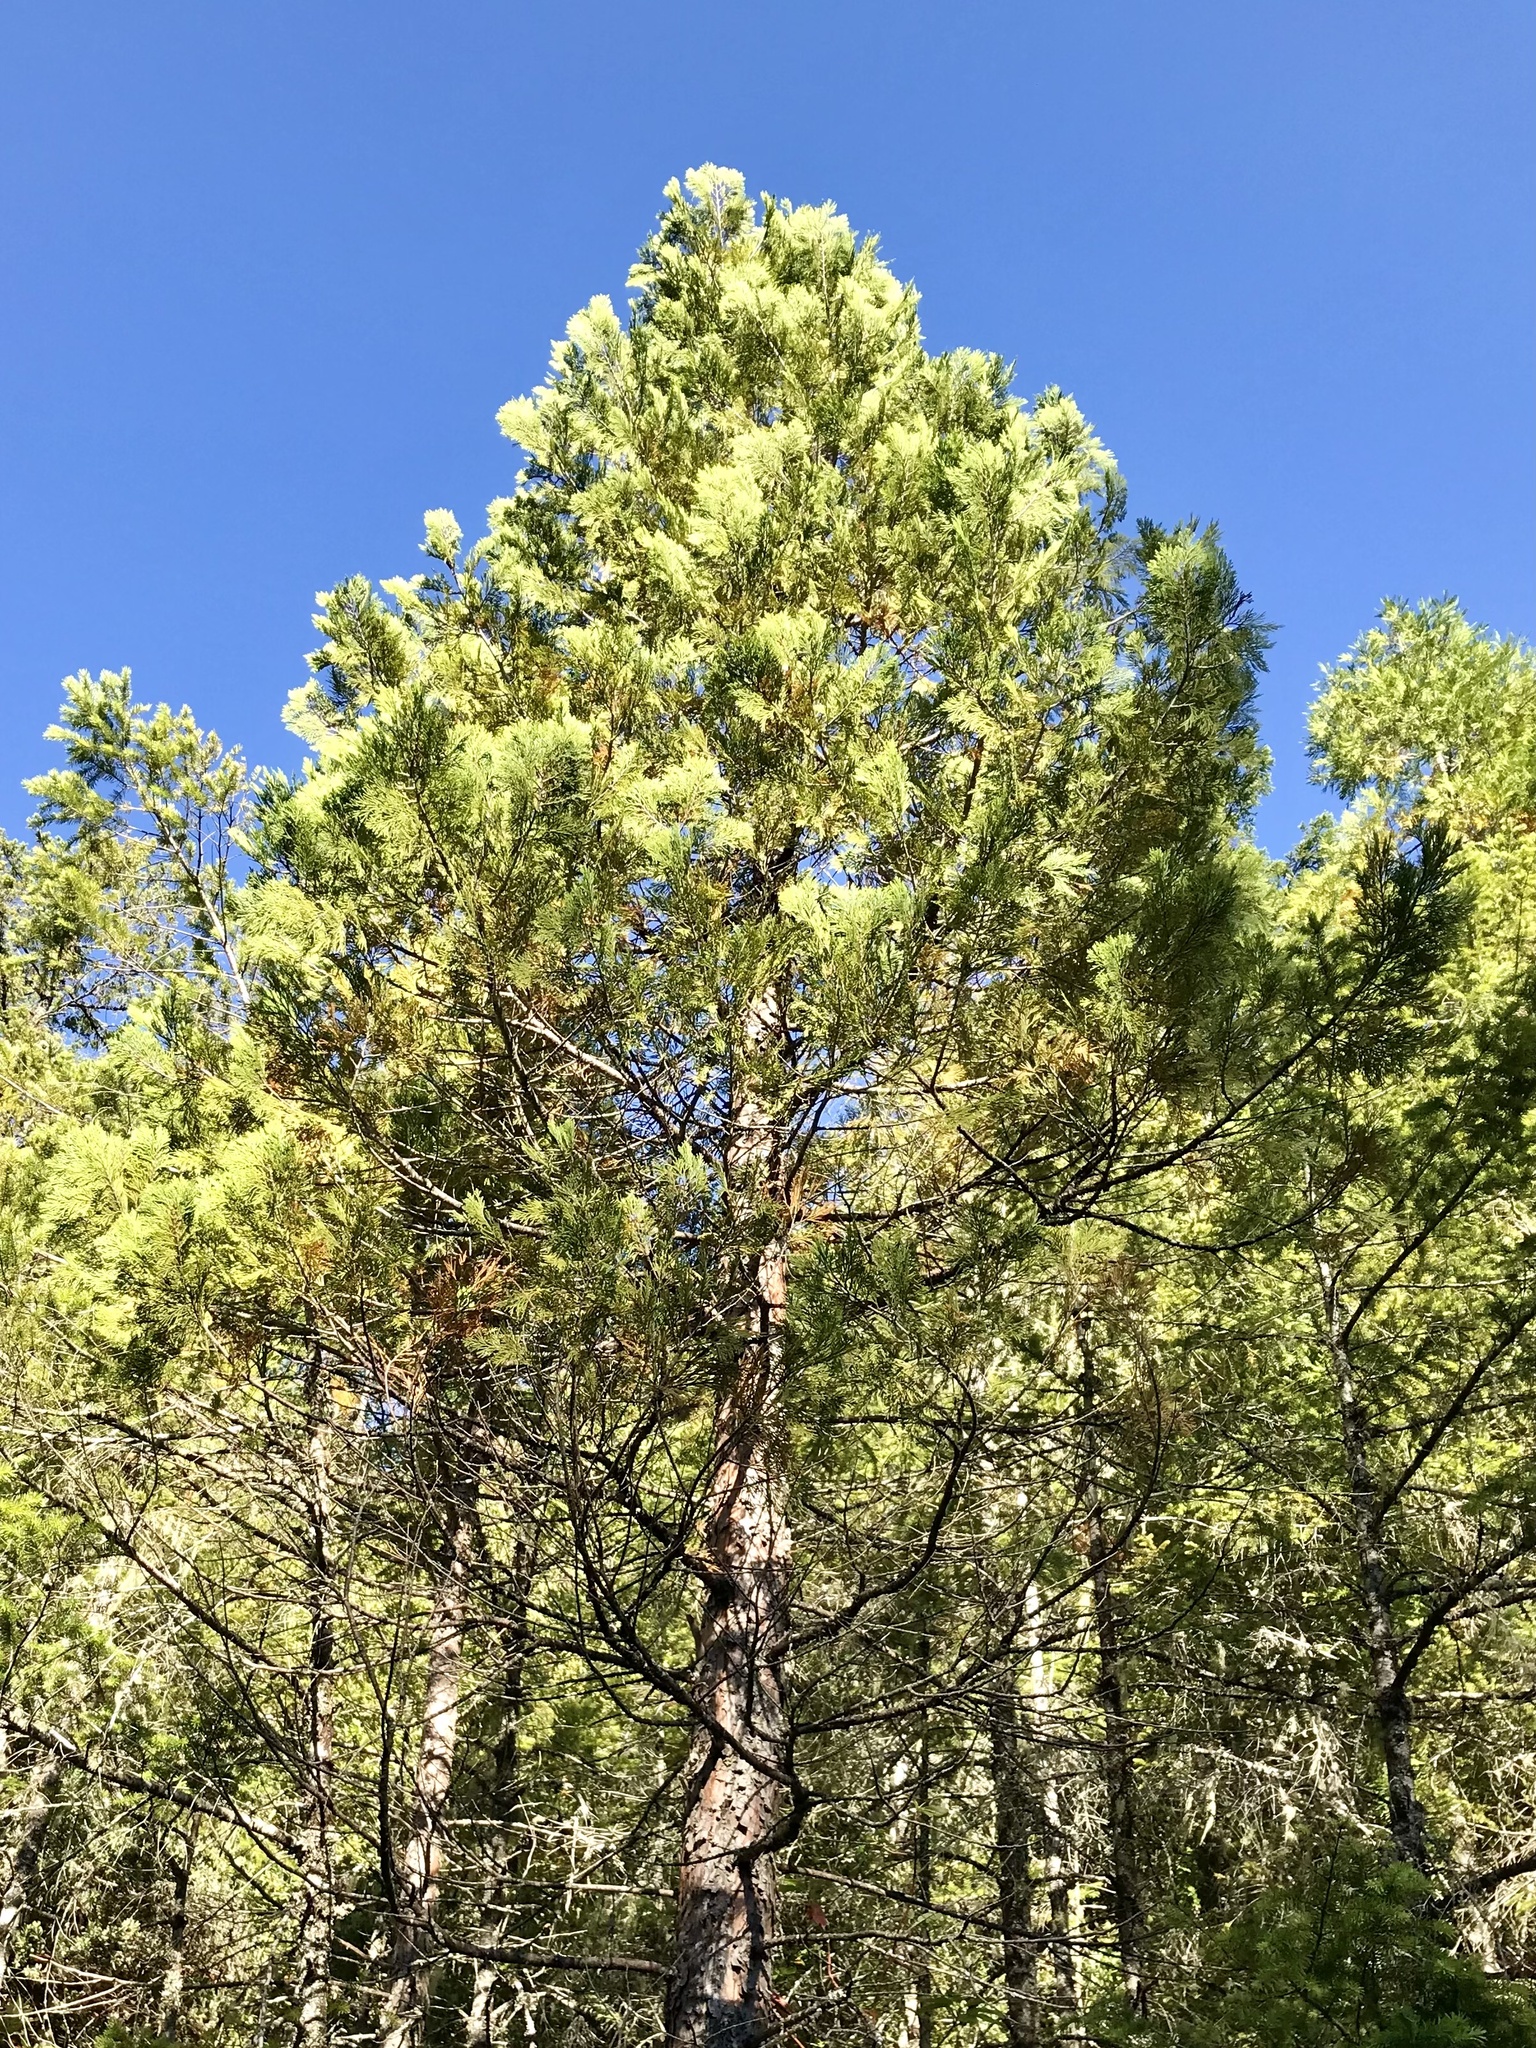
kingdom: Plantae
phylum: Tracheophyta
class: Pinopsida
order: Pinales
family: Cupressaceae
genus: Calocedrus
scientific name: Calocedrus decurrens
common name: Californian incense-cedar
